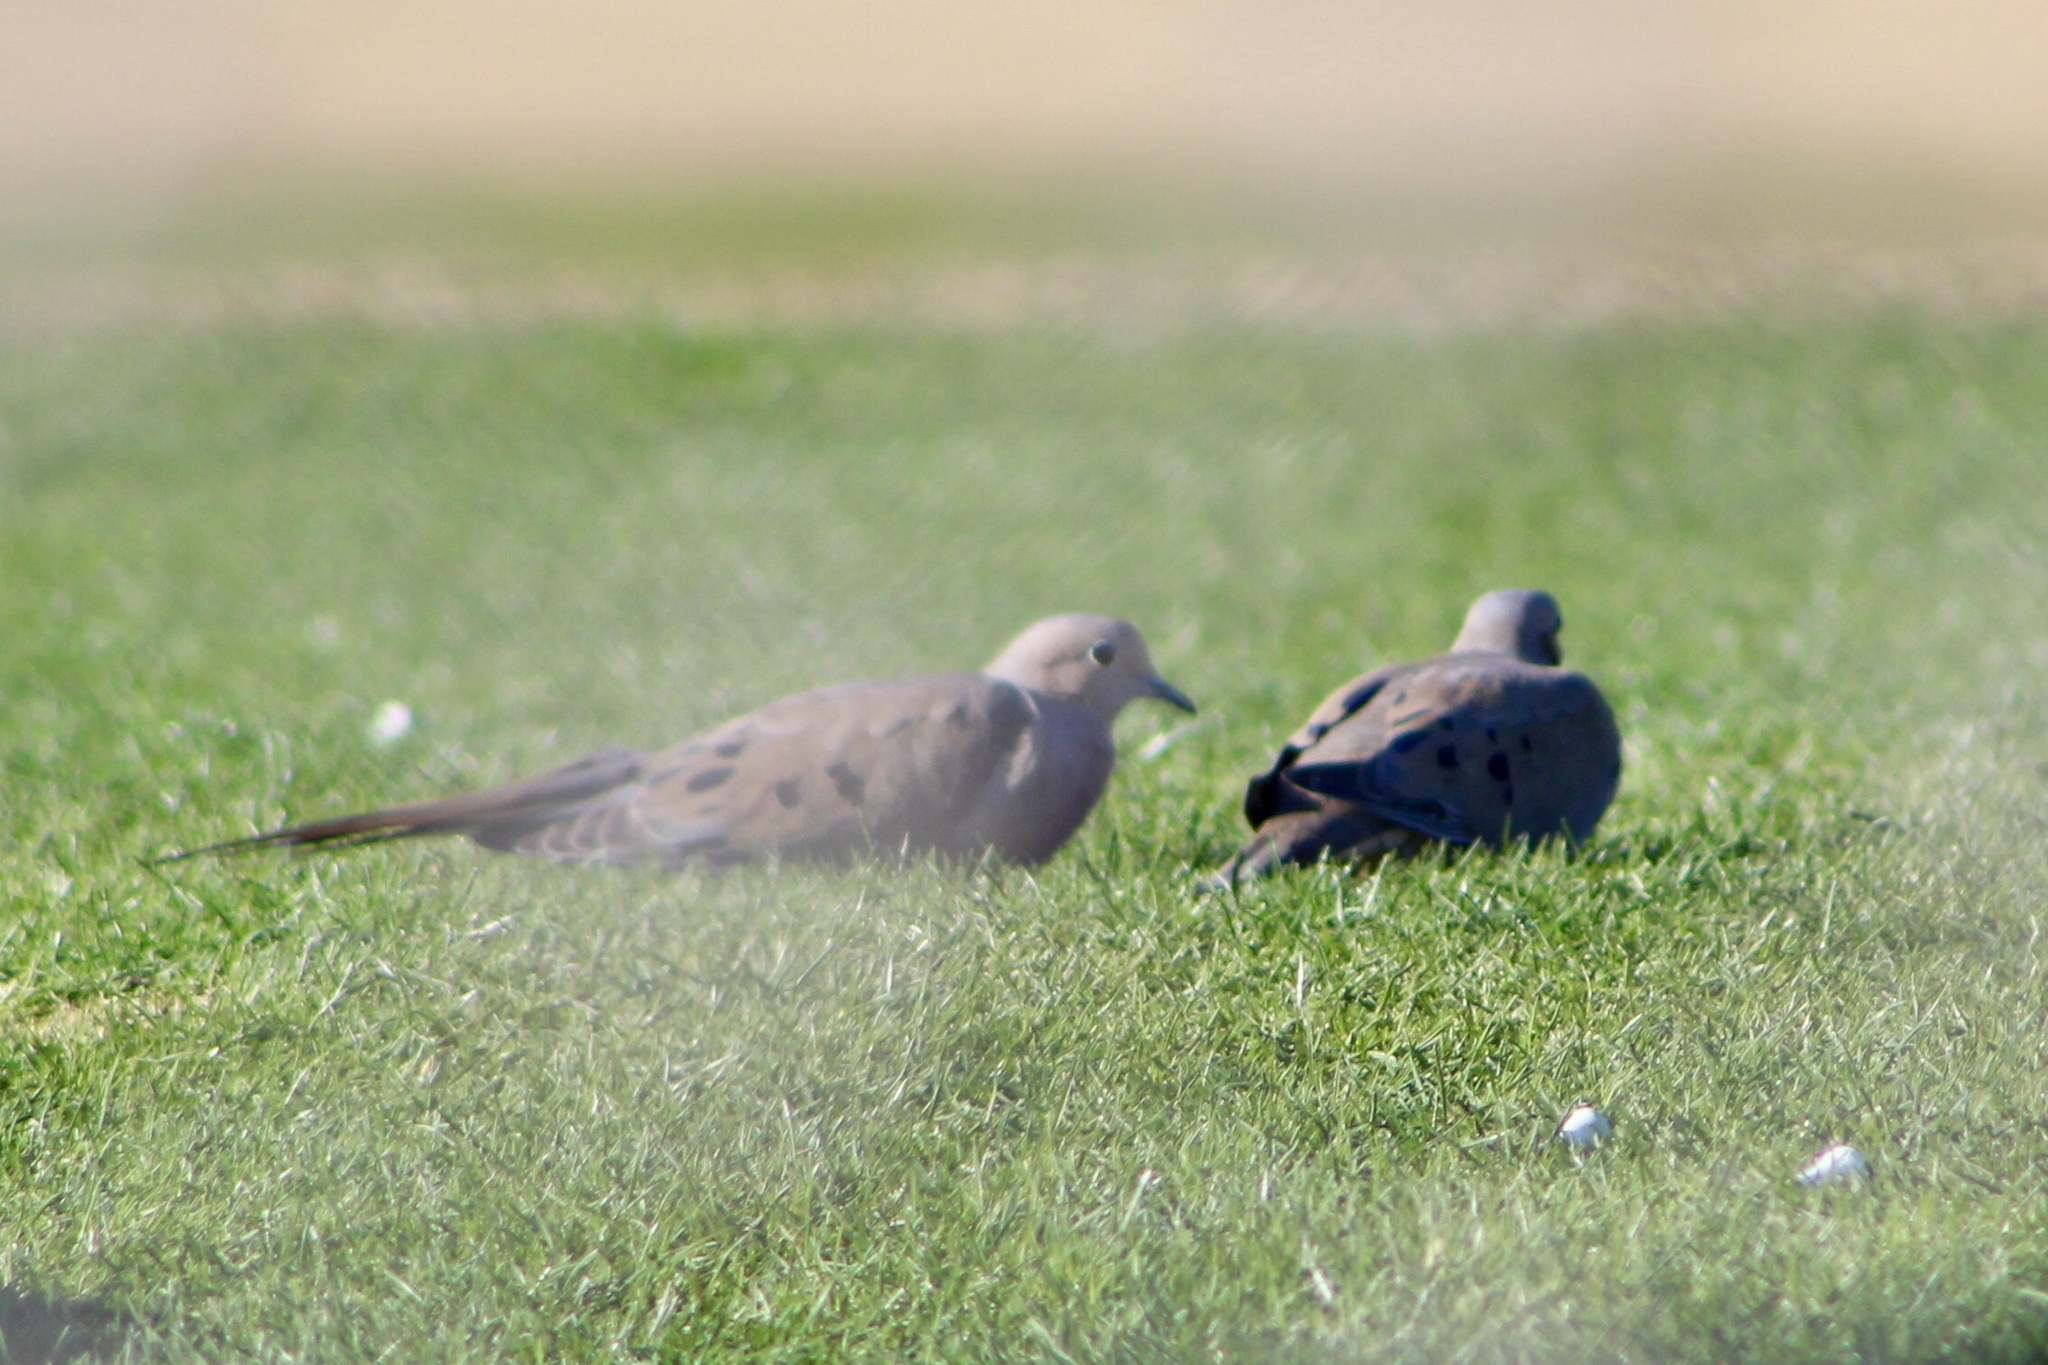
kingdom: Animalia
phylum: Chordata
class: Aves
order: Columbiformes
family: Columbidae
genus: Zenaida
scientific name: Zenaida macroura
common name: Mourning dove
